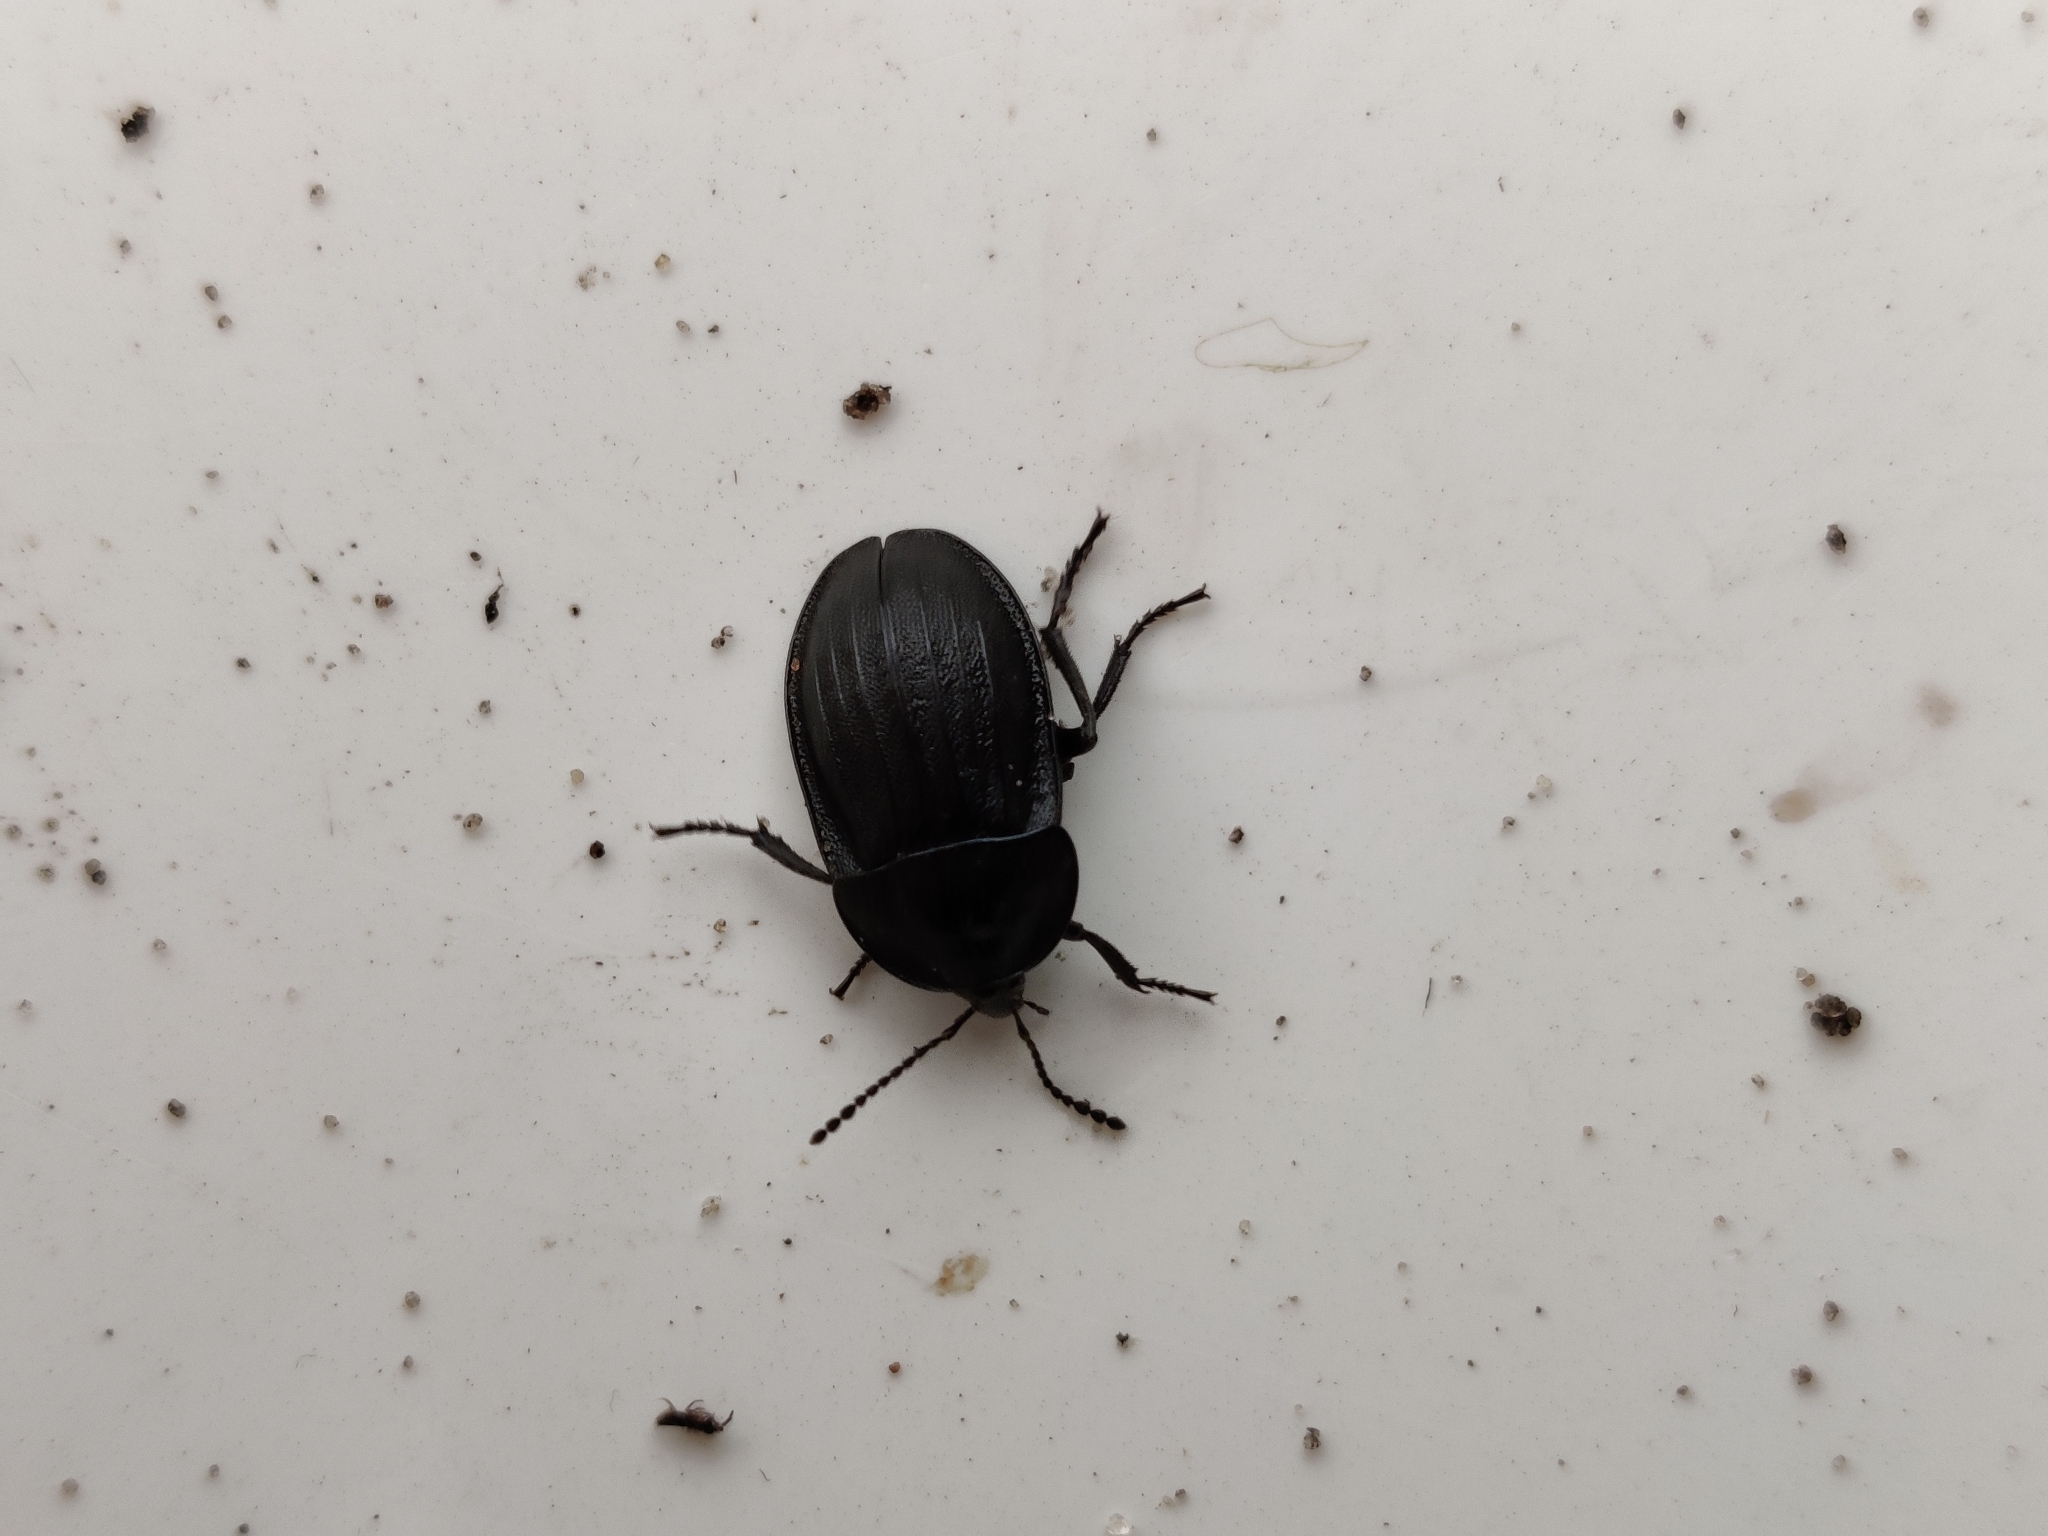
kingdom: Animalia
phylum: Arthropoda
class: Insecta
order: Coleoptera
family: Staphylinidae
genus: Silpha
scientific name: Silpha atrata
